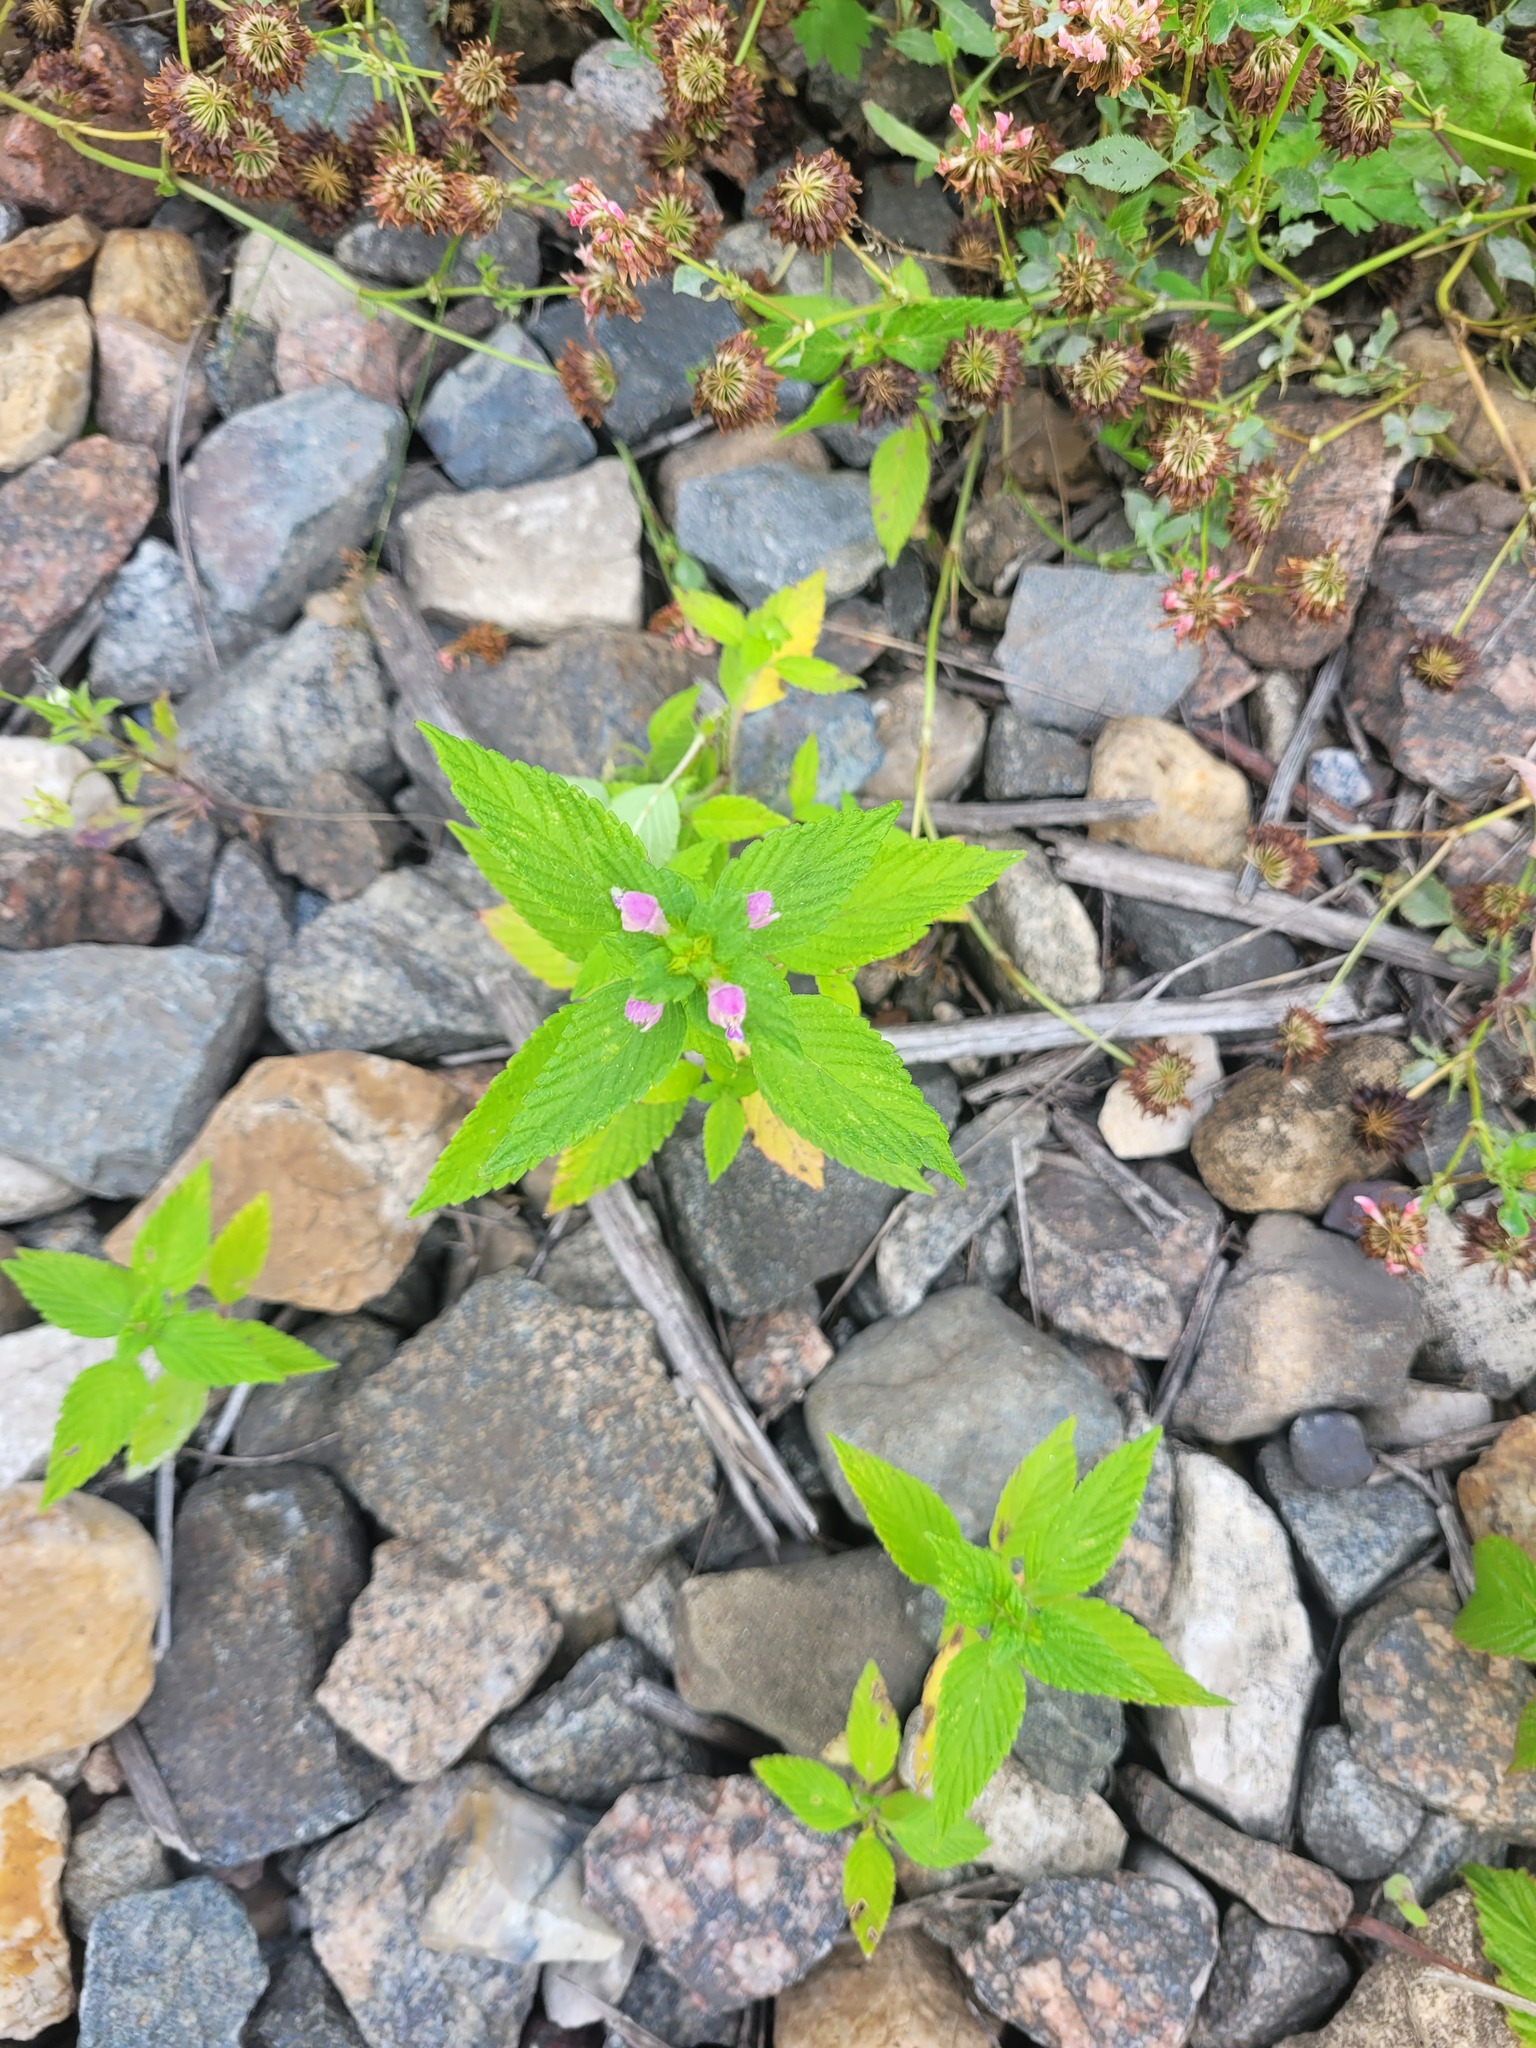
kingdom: Plantae
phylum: Tracheophyta
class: Magnoliopsida
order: Lamiales
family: Lamiaceae
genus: Galeopsis
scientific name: Galeopsis bifida
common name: Bifid hemp-nettle
